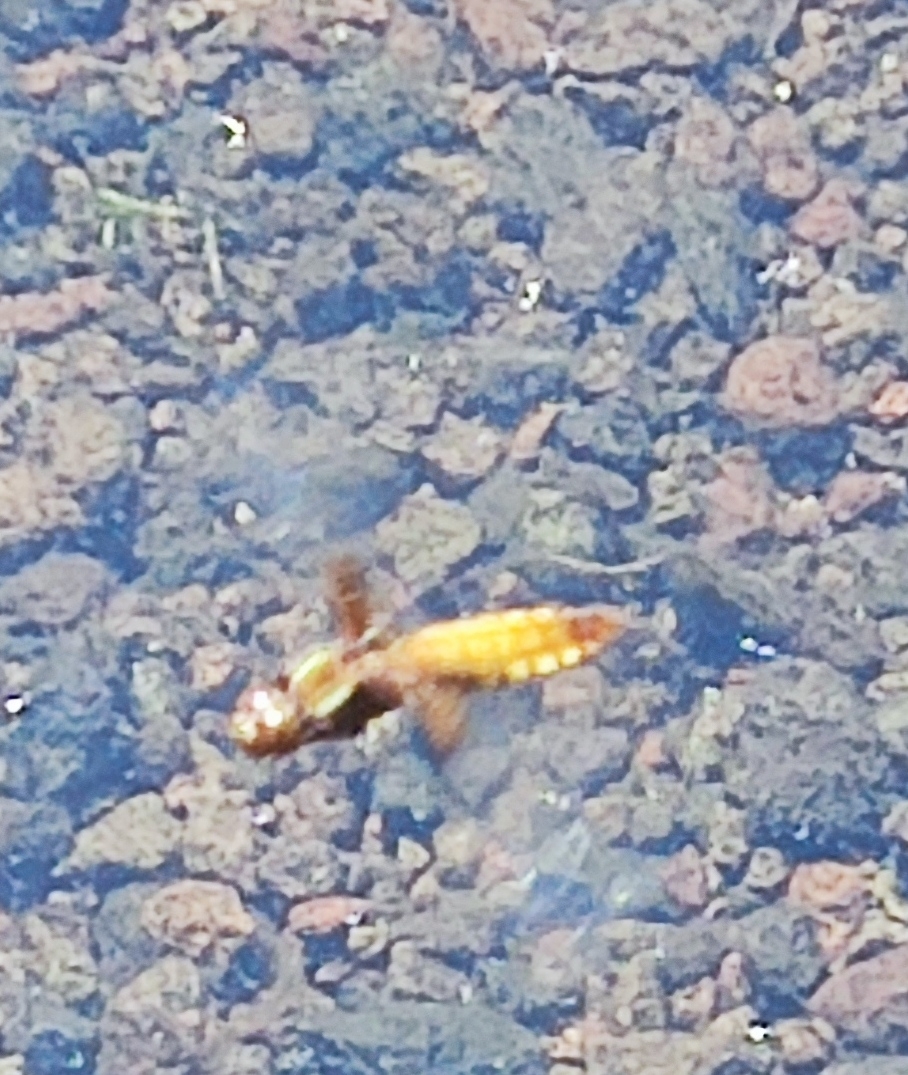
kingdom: Animalia
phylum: Arthropoda
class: Insecta
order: Odonata
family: Libellulidae
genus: Libellula
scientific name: Libellula depressa
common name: Broad-bodied chaser
